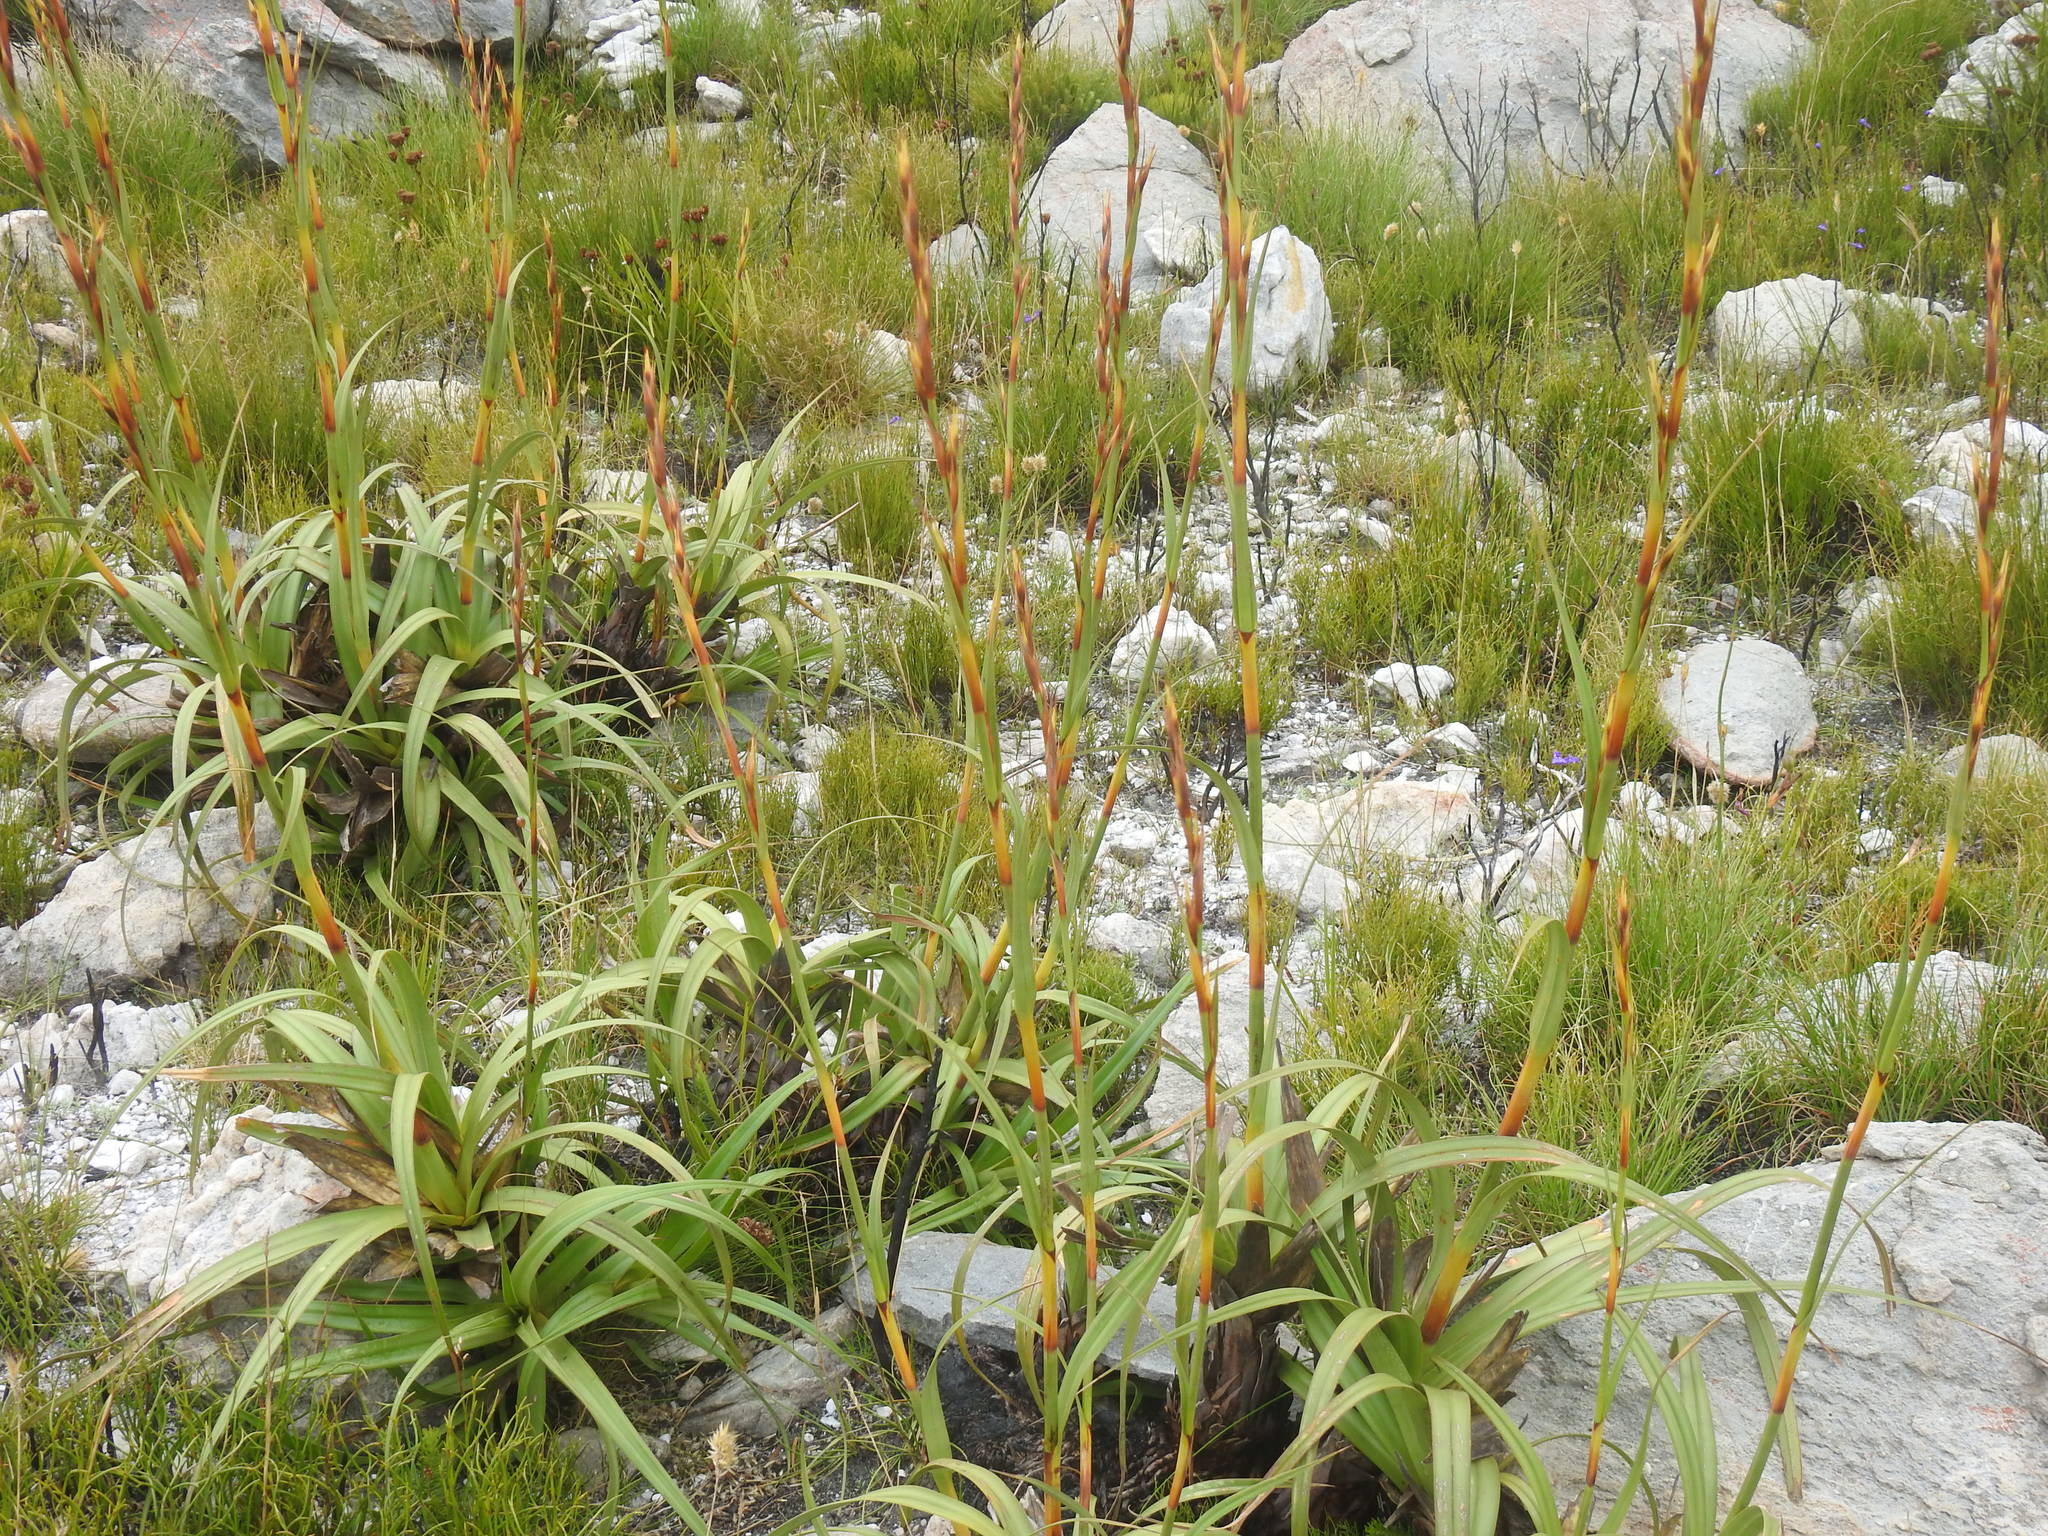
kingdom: Plantae
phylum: Tracheophyta
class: Liliopsida
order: Poales
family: Cyperaceae
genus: Tetraria
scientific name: Tetraria thermalis
